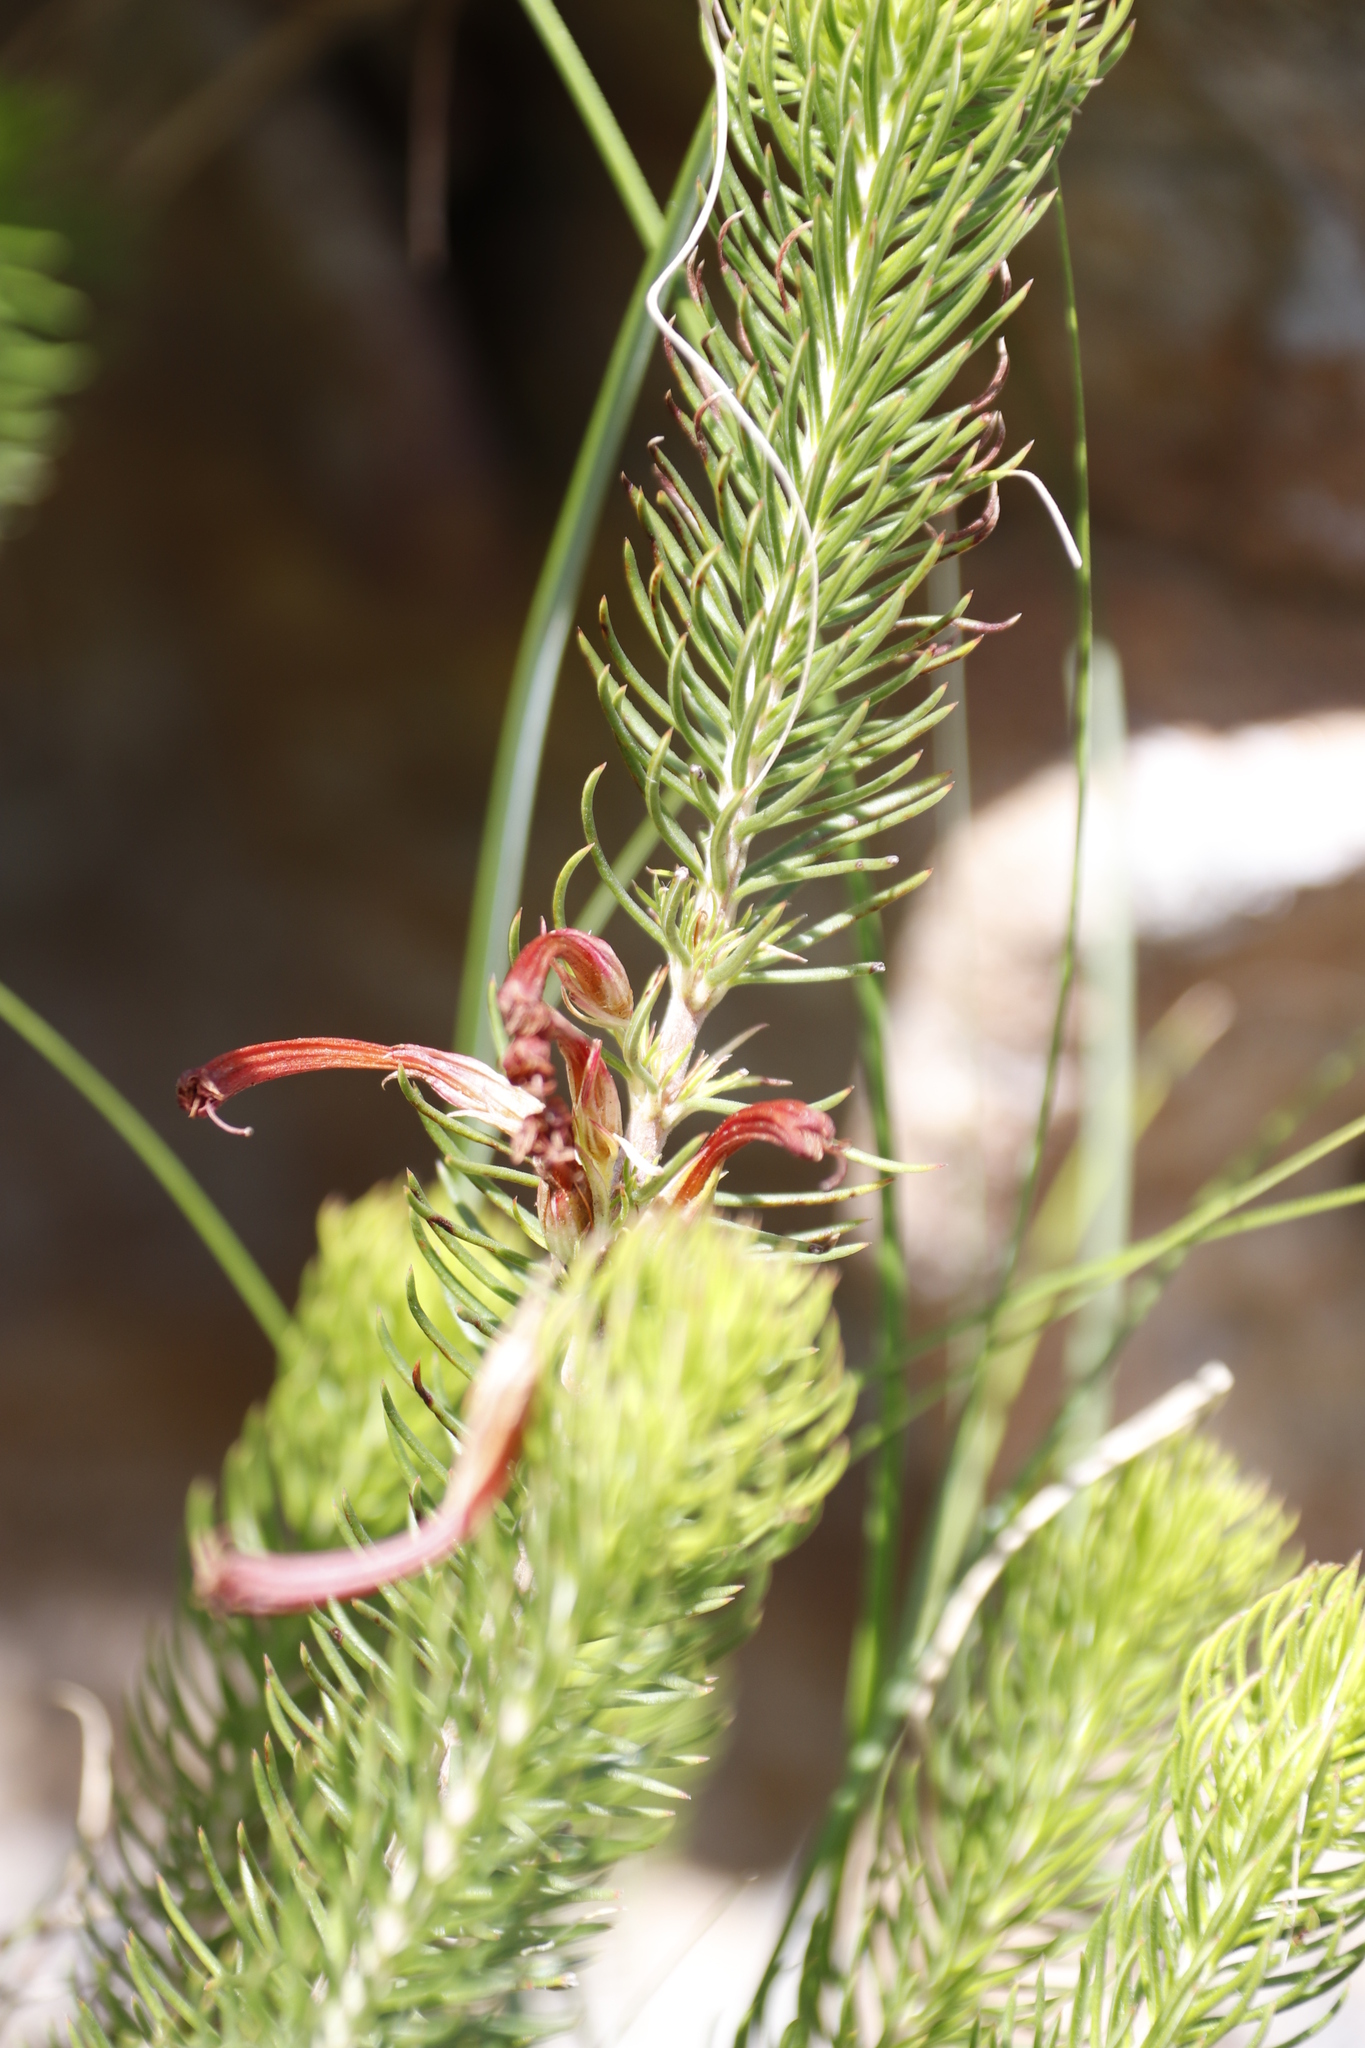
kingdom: Plantae
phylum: Tracheophyta
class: Magnoliopsida
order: Ericales
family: Ericaceae
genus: Erica
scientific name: Erica abietina
